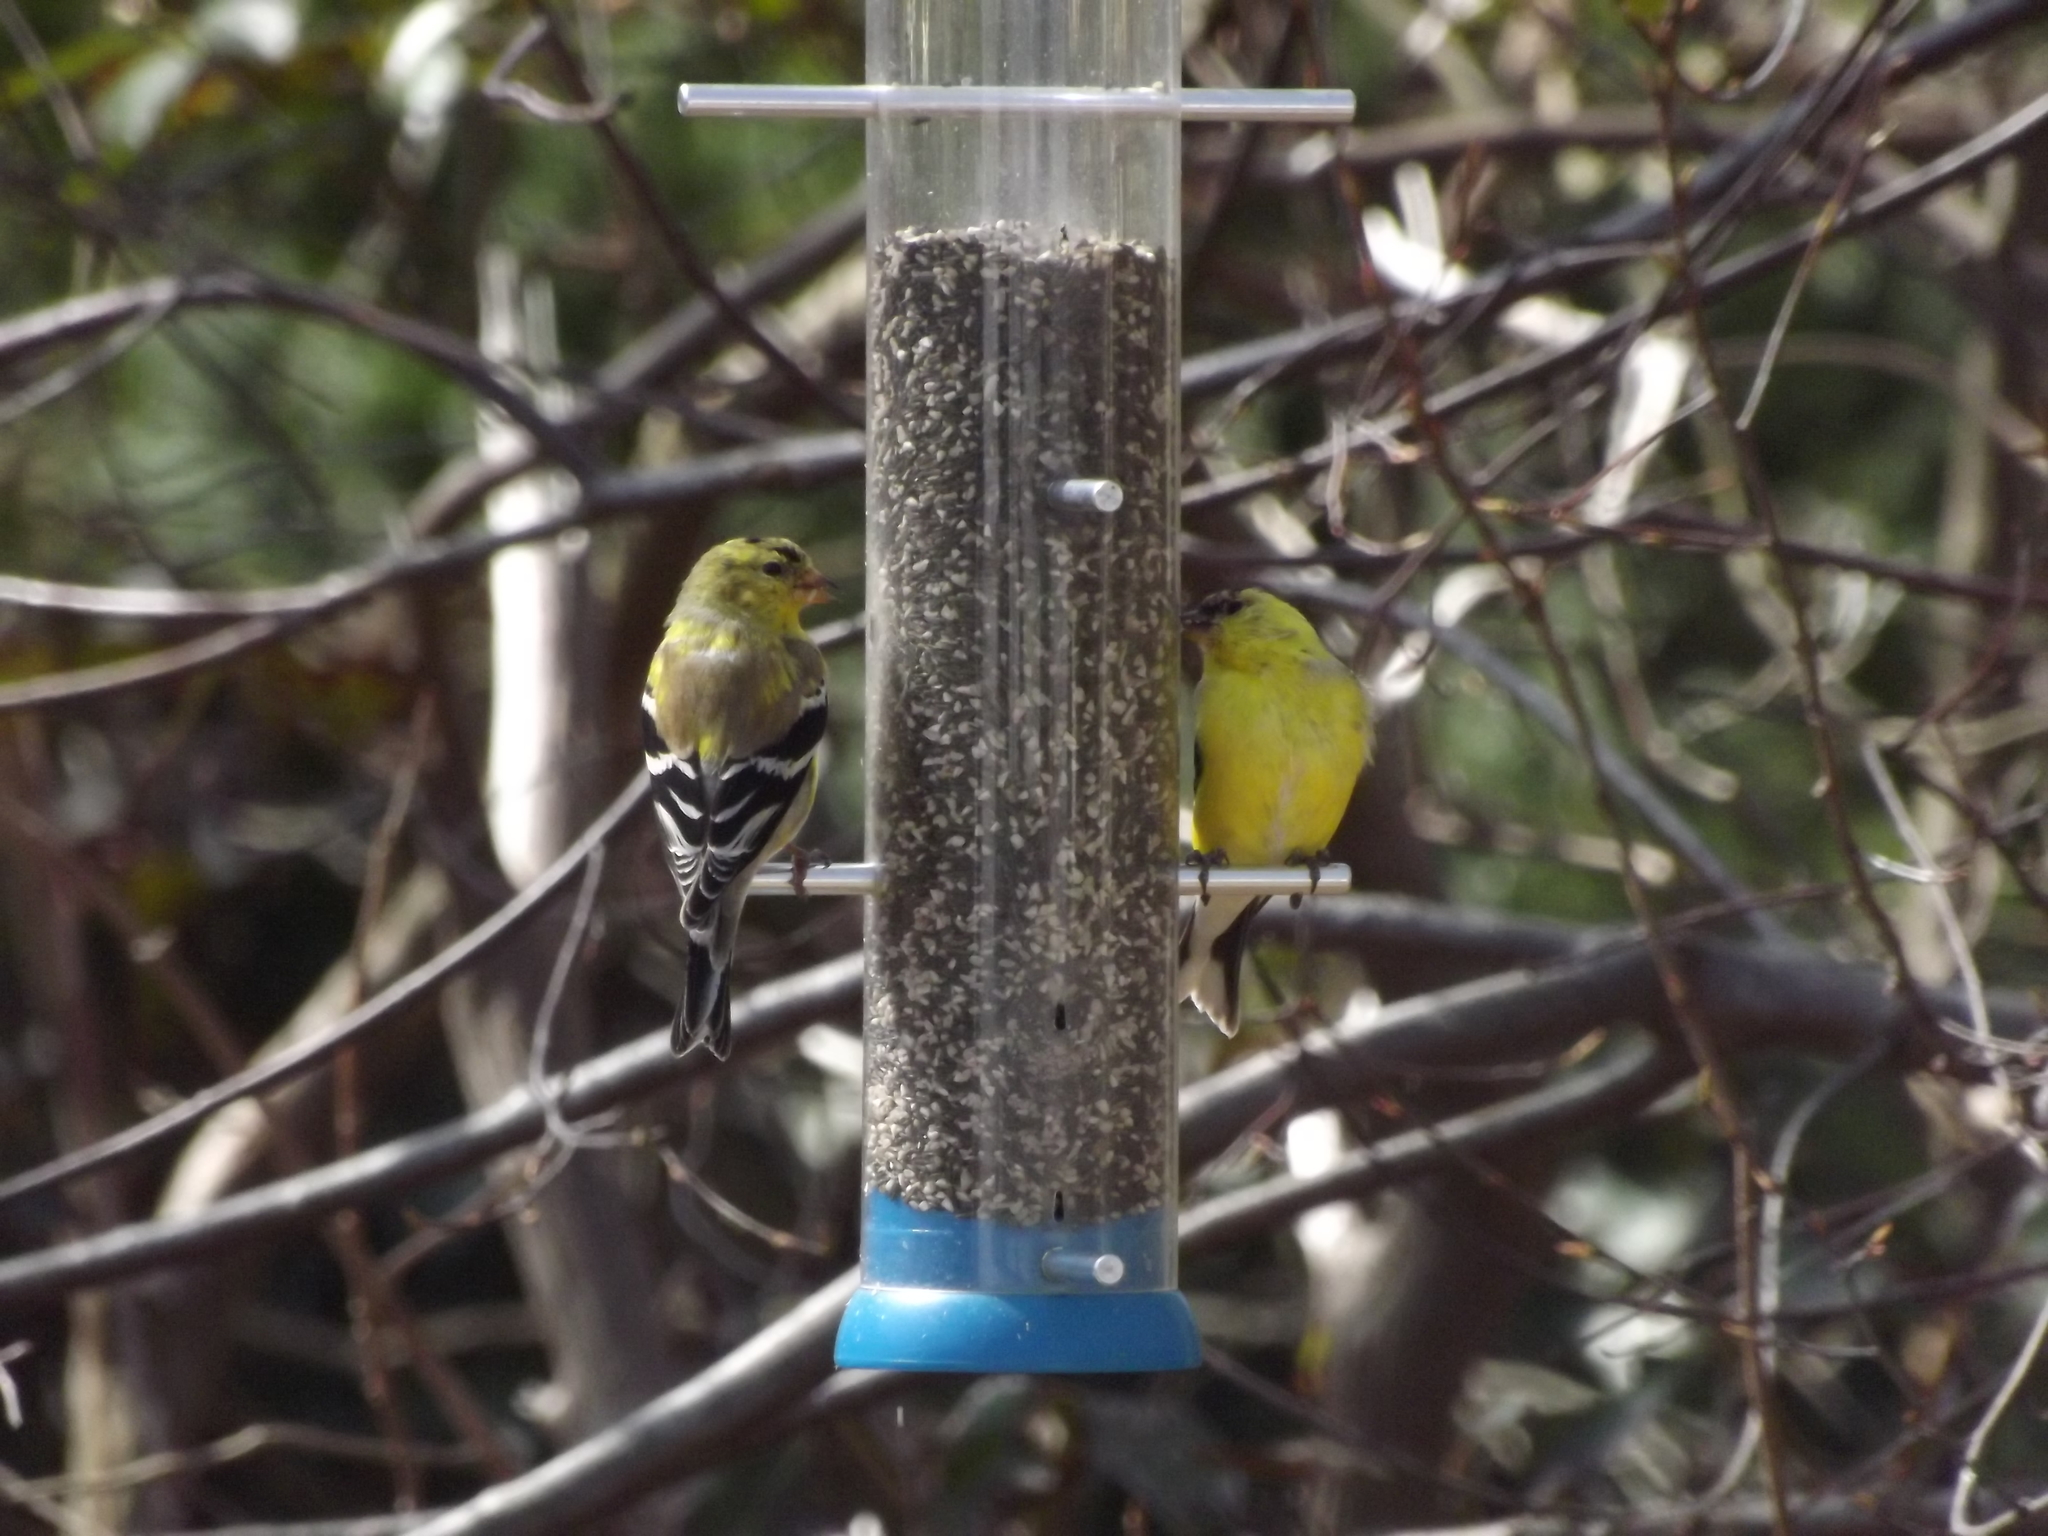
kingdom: Animalia
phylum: Chordata
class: Aves
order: Passeriformes
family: Fringillidae
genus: Spinus
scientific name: Spinus tristis
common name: American goldfinch
